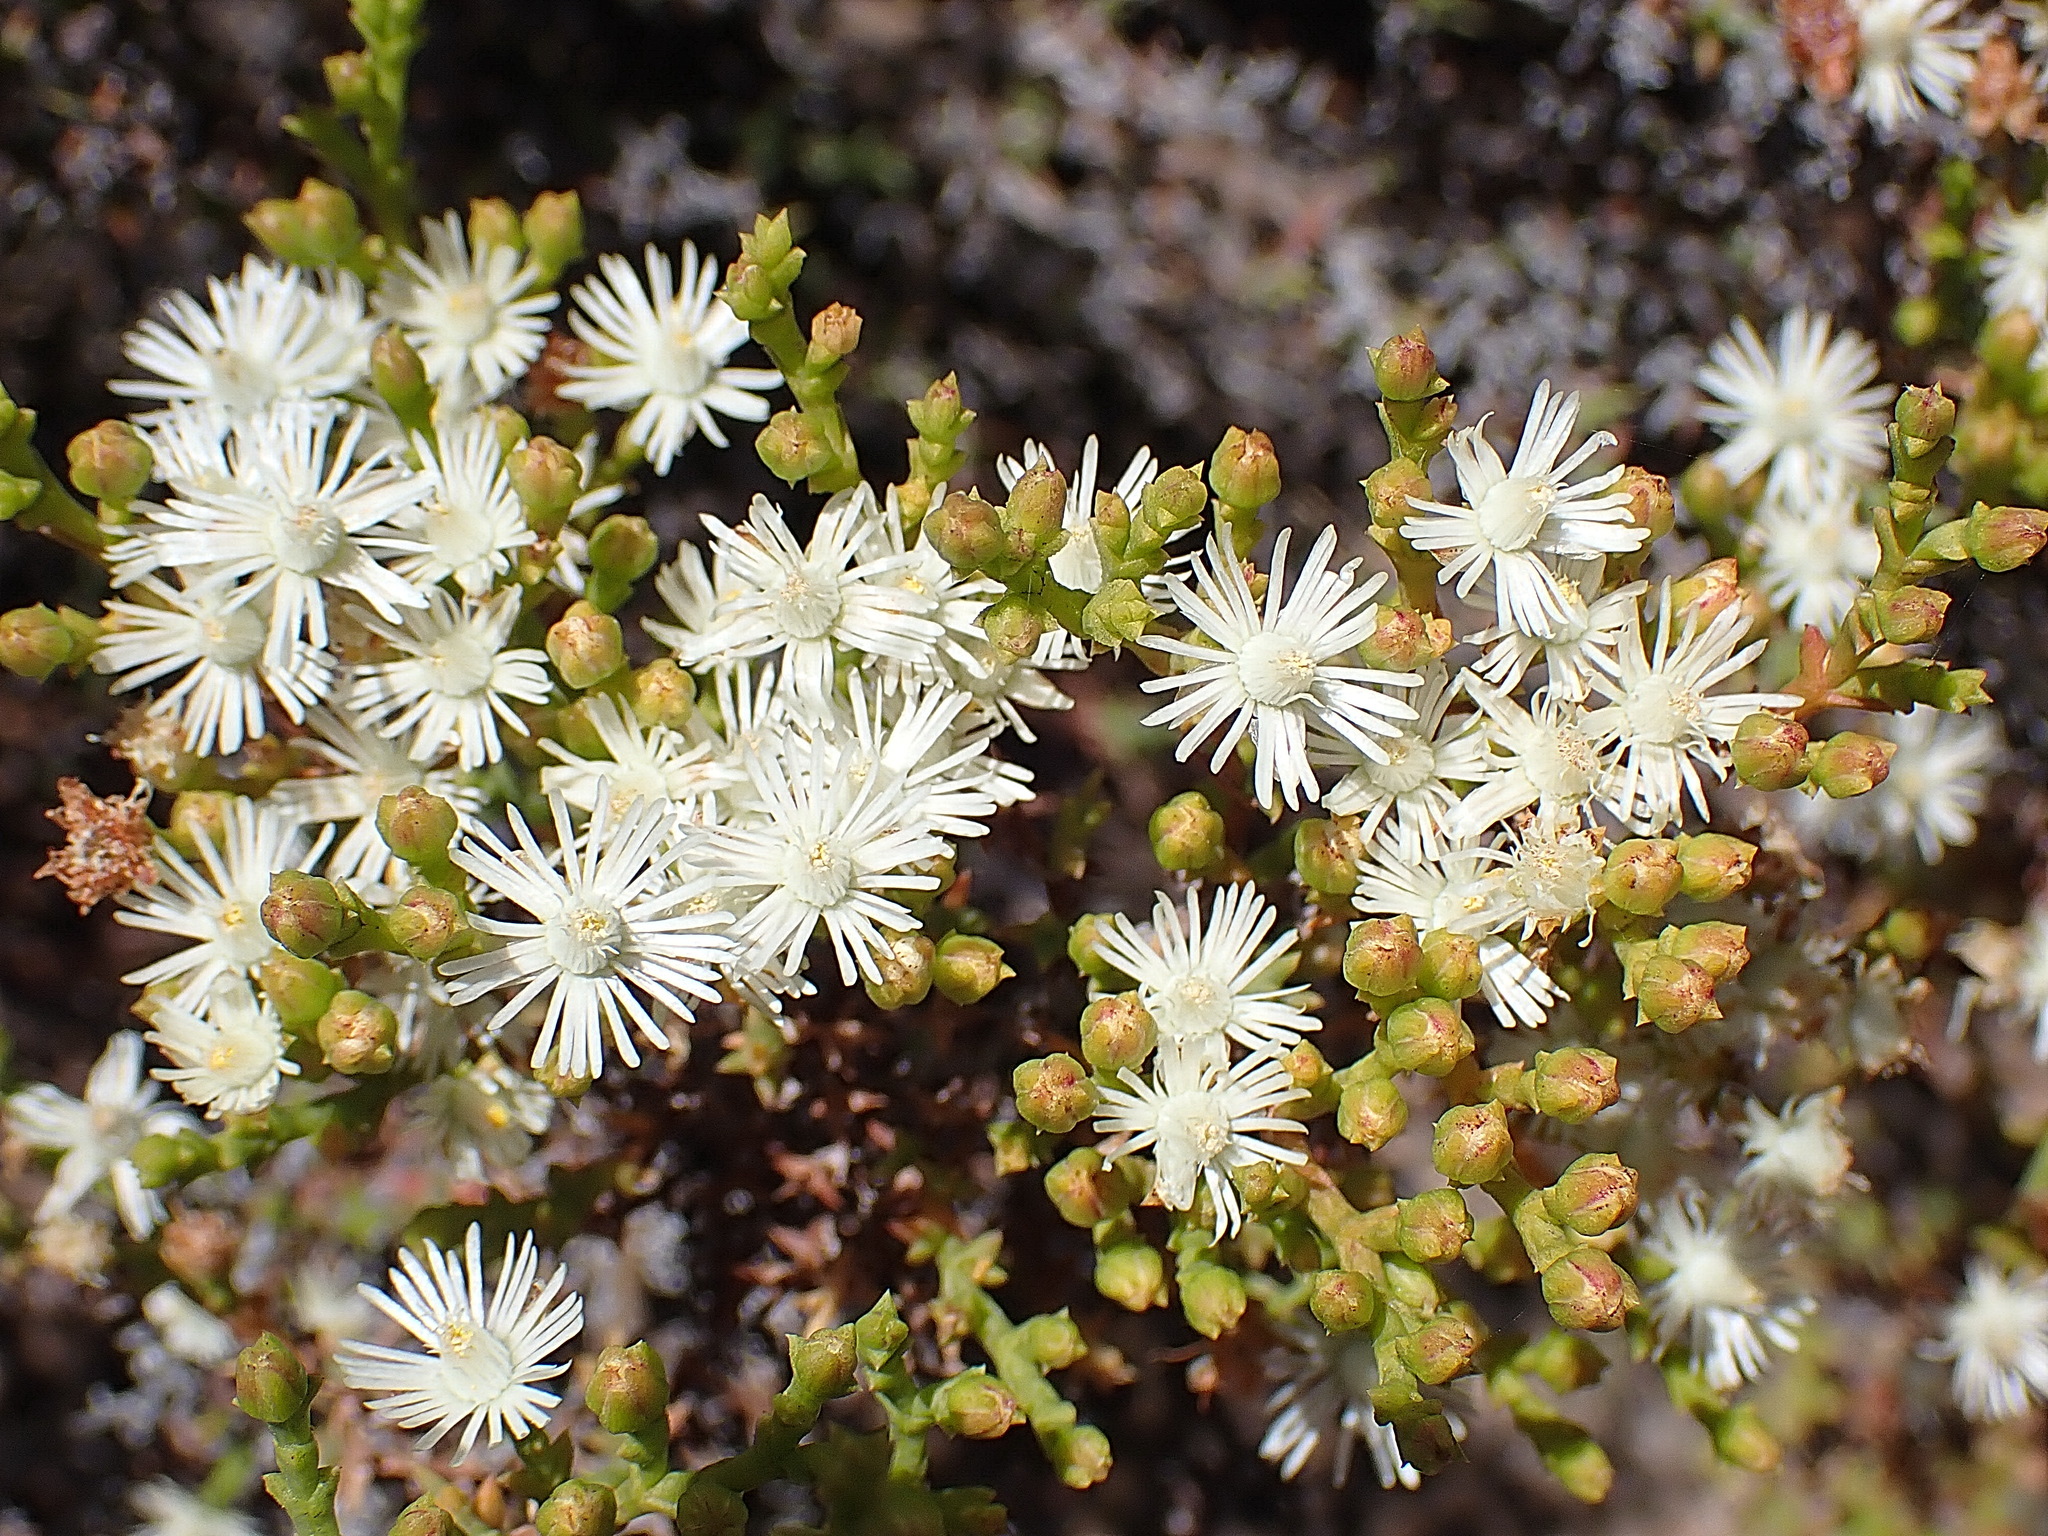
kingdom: Plantae
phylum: Tracheophyta
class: Magnoliopsida
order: Caryophyllales
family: Aizoaceae
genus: Ruschia
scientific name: Ruschia tenella
